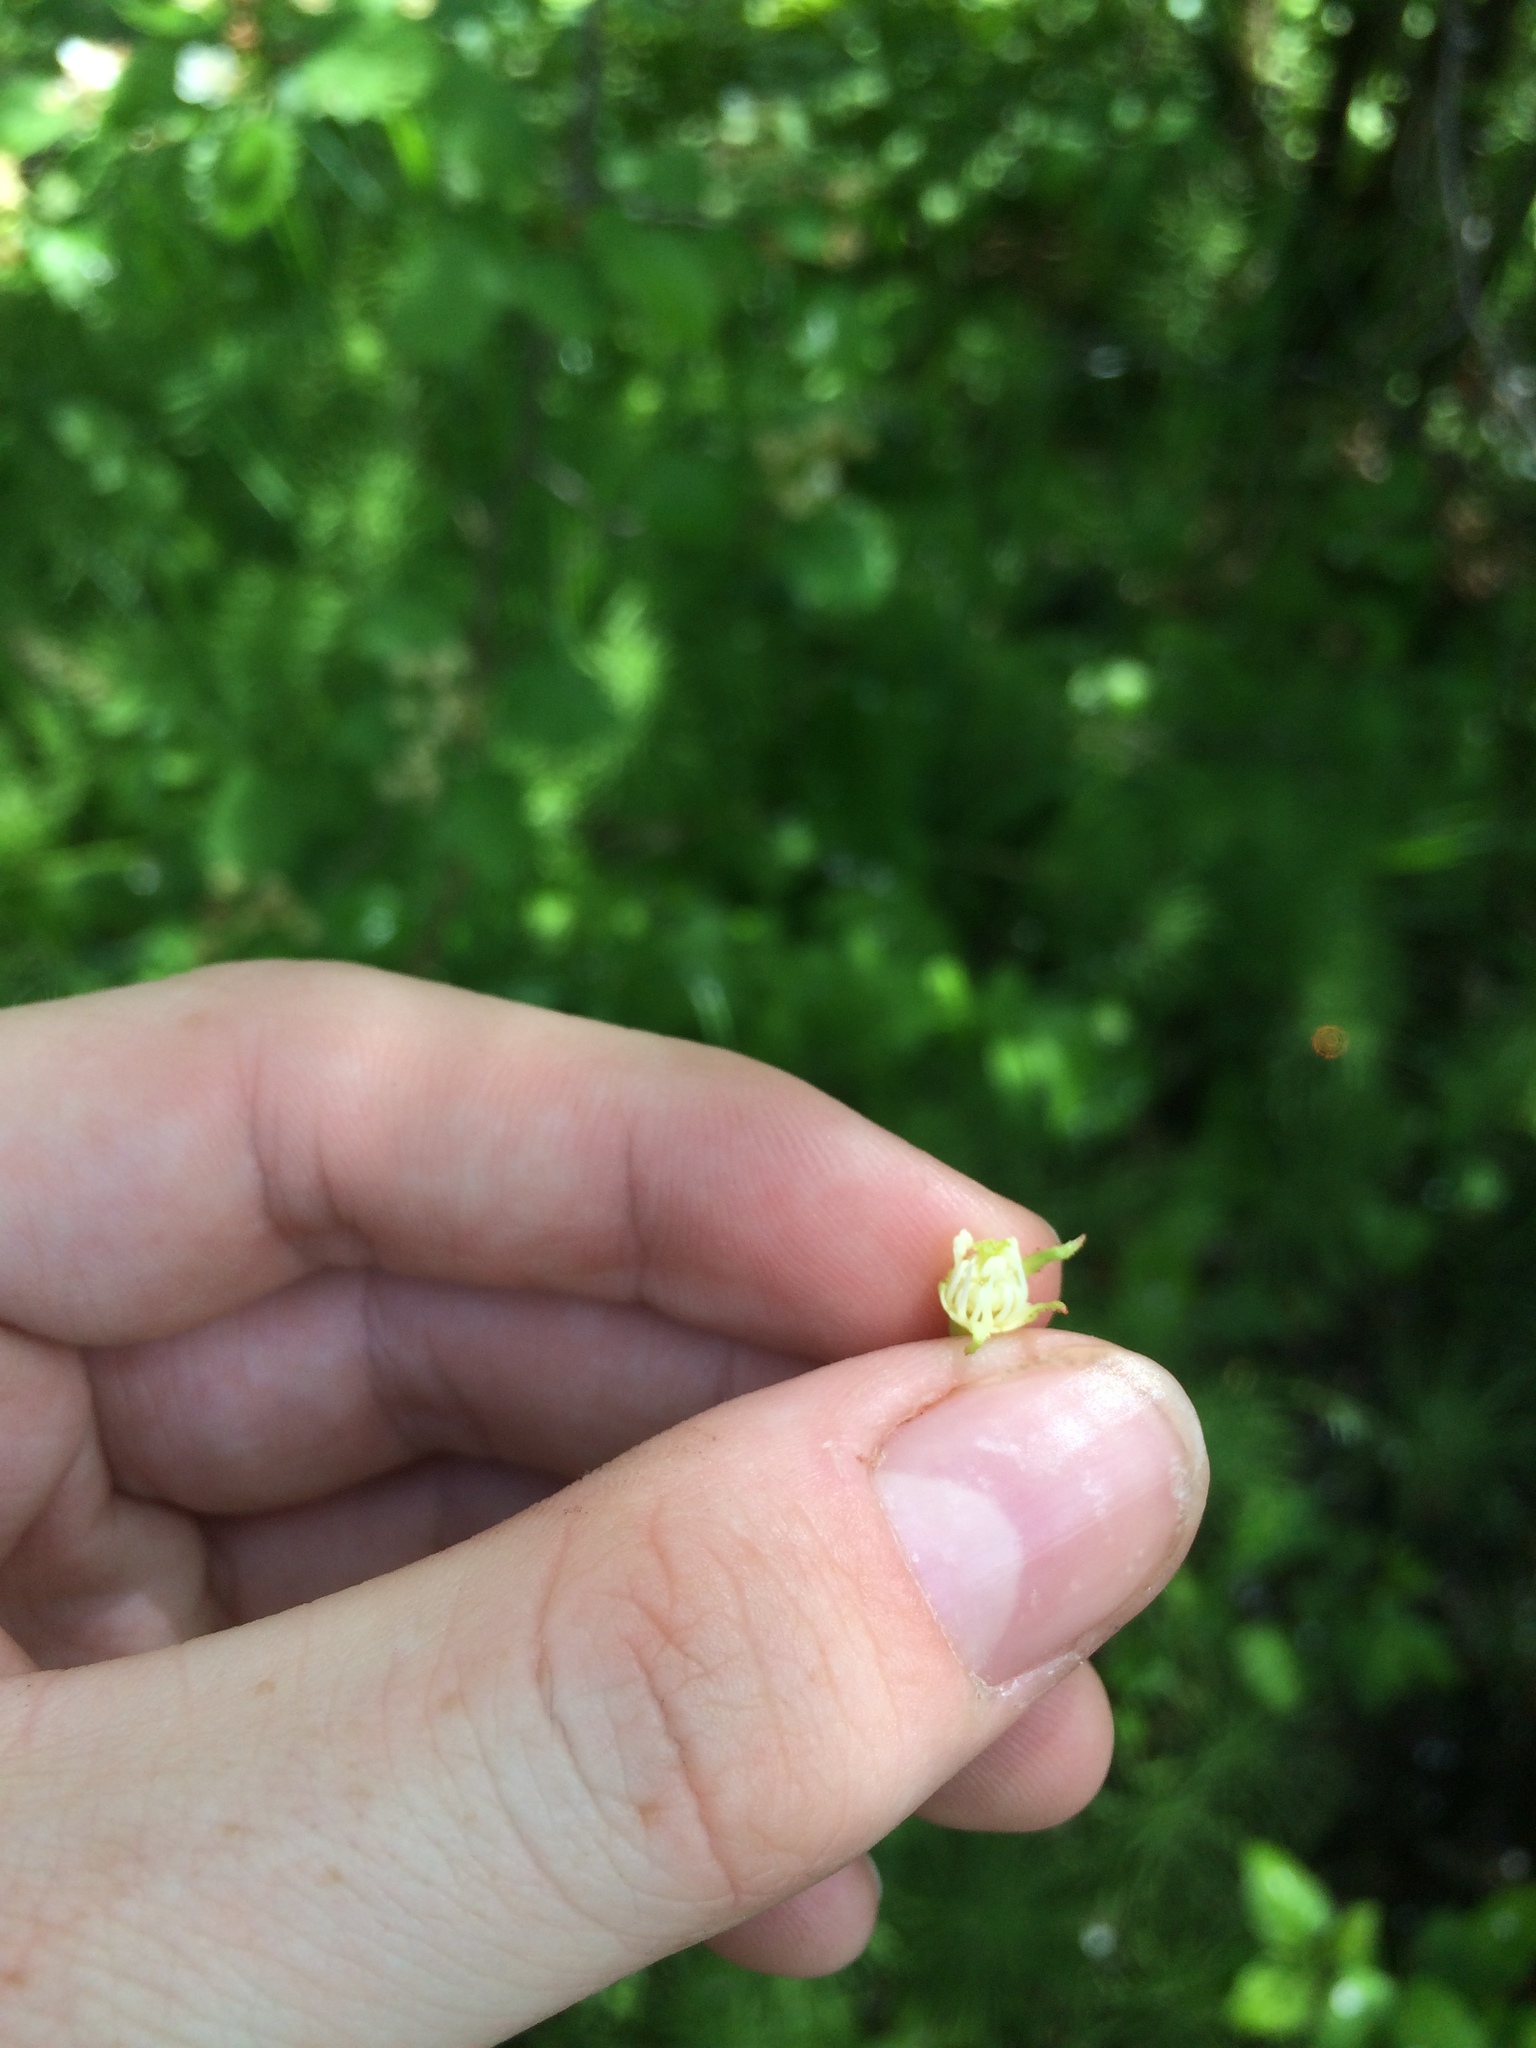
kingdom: Plantae
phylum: Tracheophyta
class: Magnoliopsida
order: Rosales
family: Rosaceae
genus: Crataegus
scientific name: Crataegus irrasa
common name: Unshorn hawthorn
